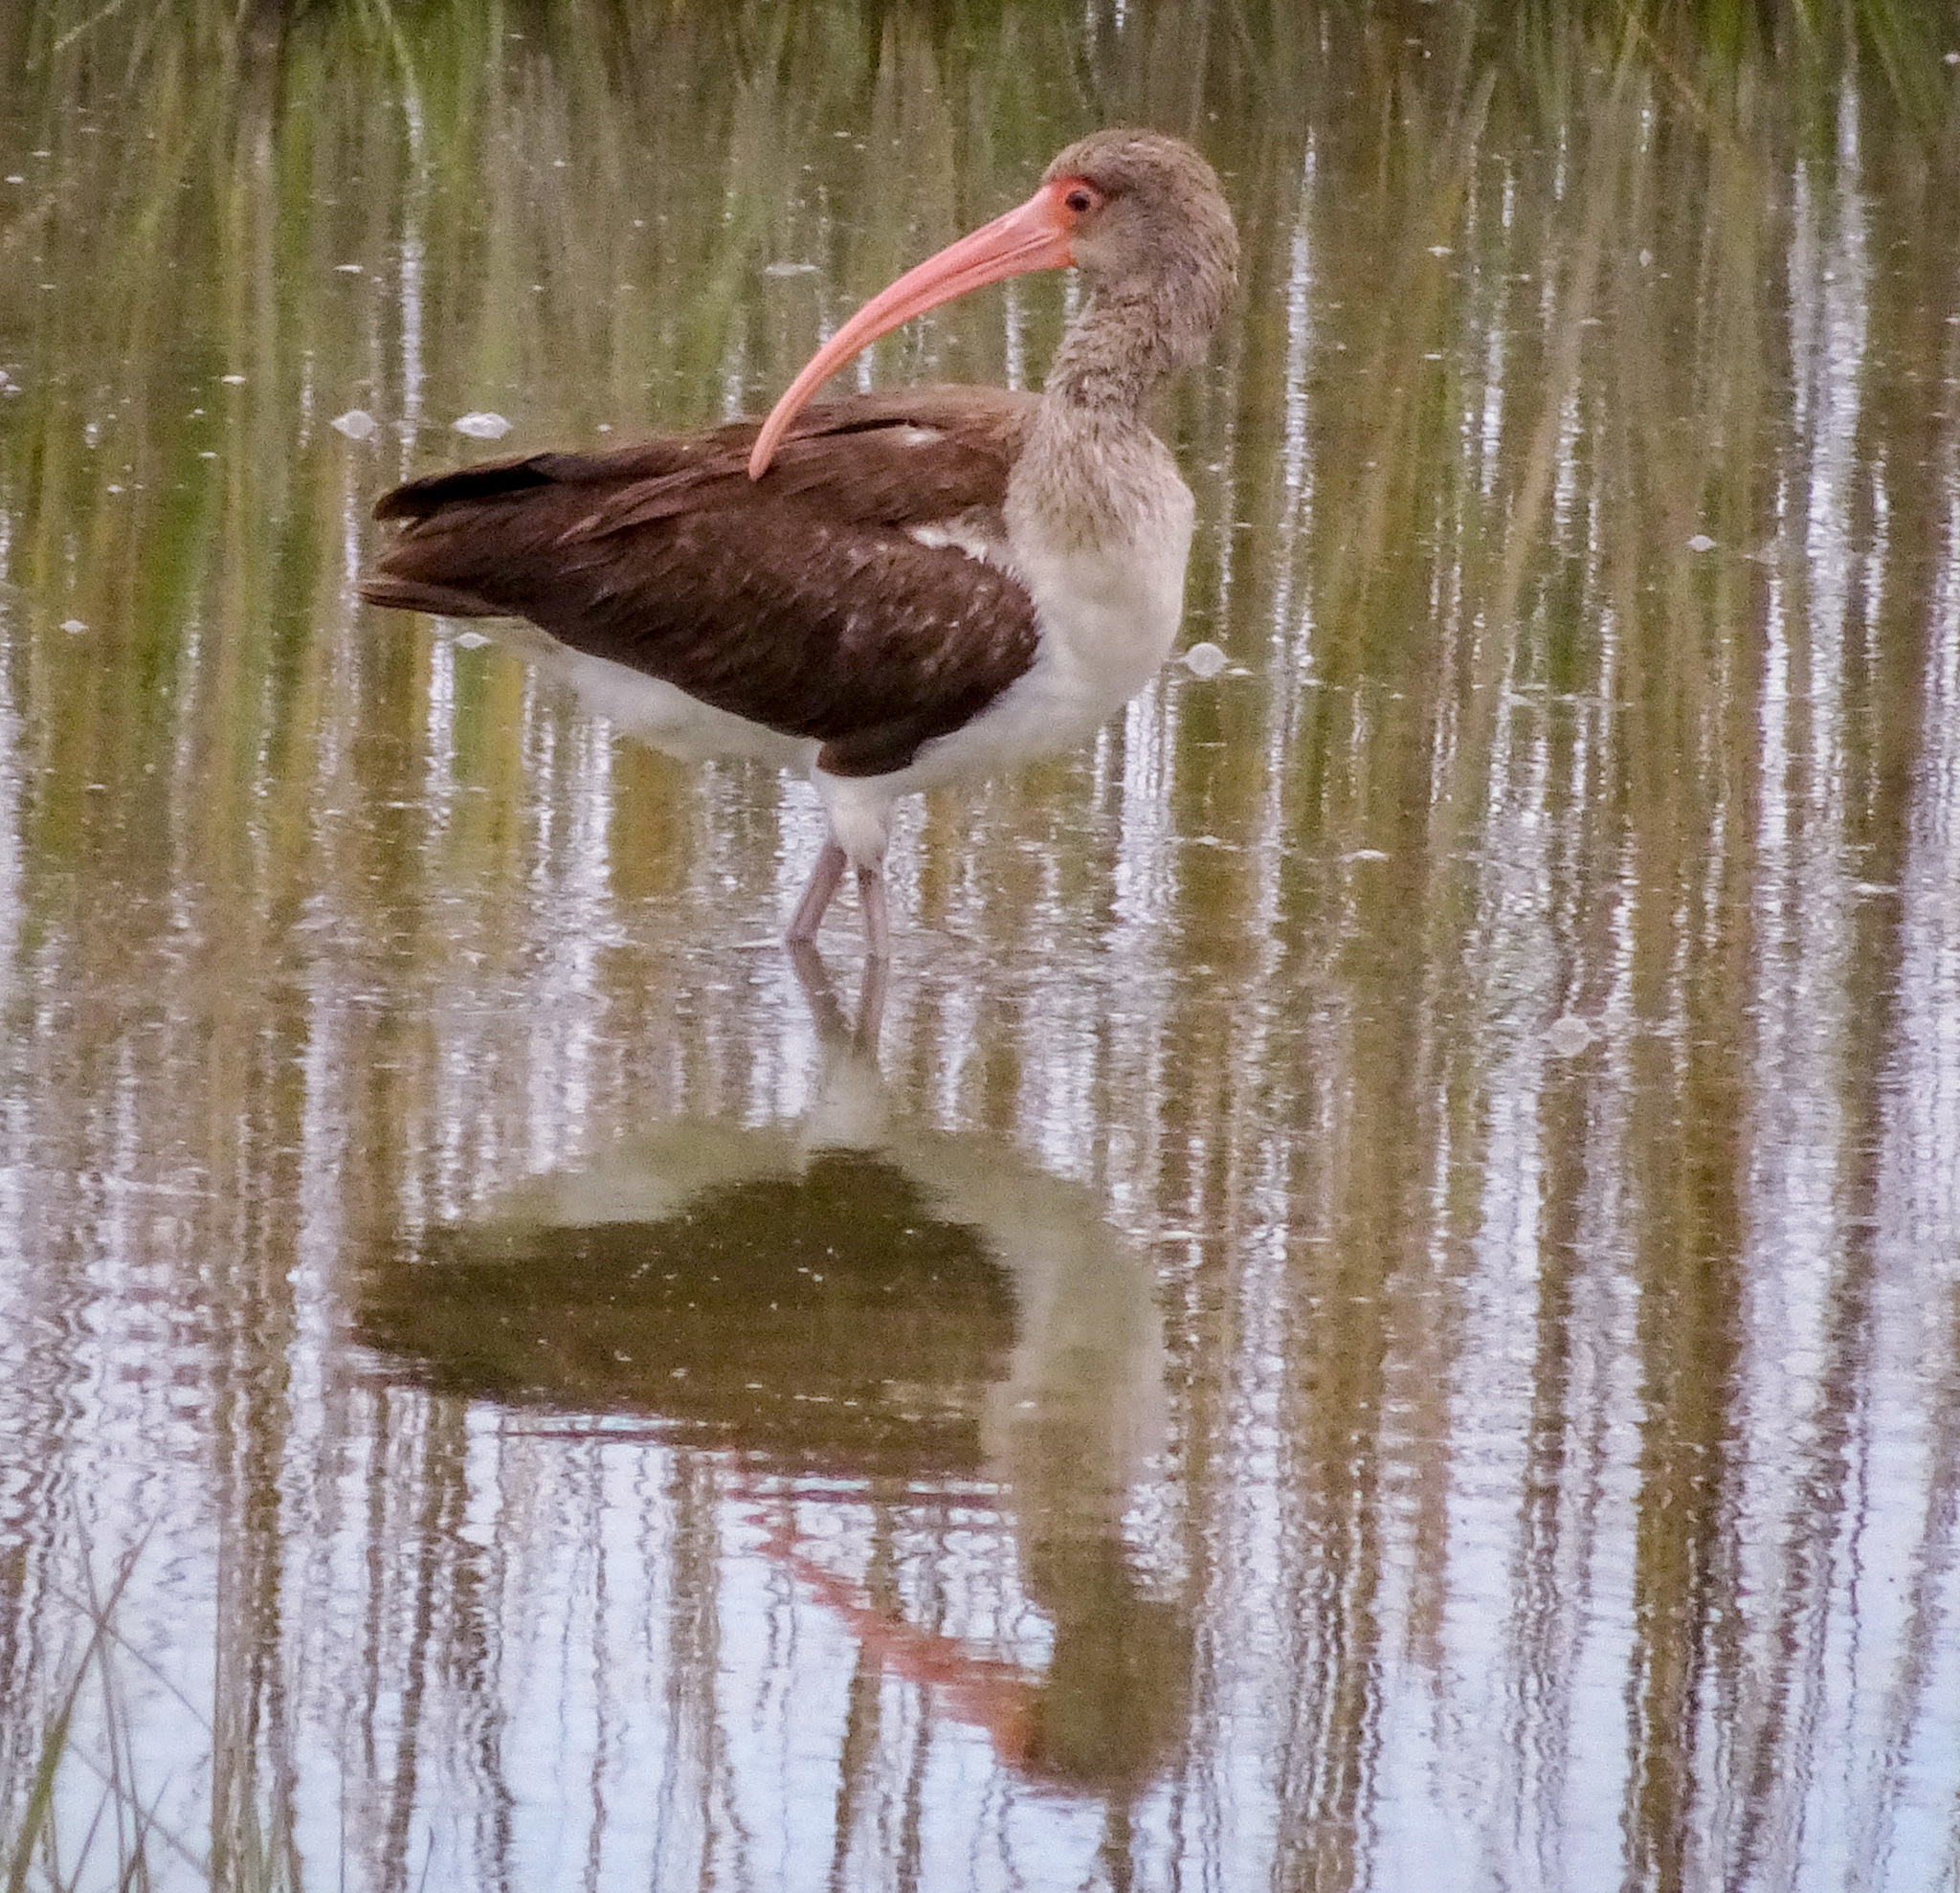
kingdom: Animalia
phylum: Chordata
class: Aves
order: Pelecaniformes
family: Threskiornithidae
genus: Eudocimus
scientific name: Eudocimus albus
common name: White ibis
